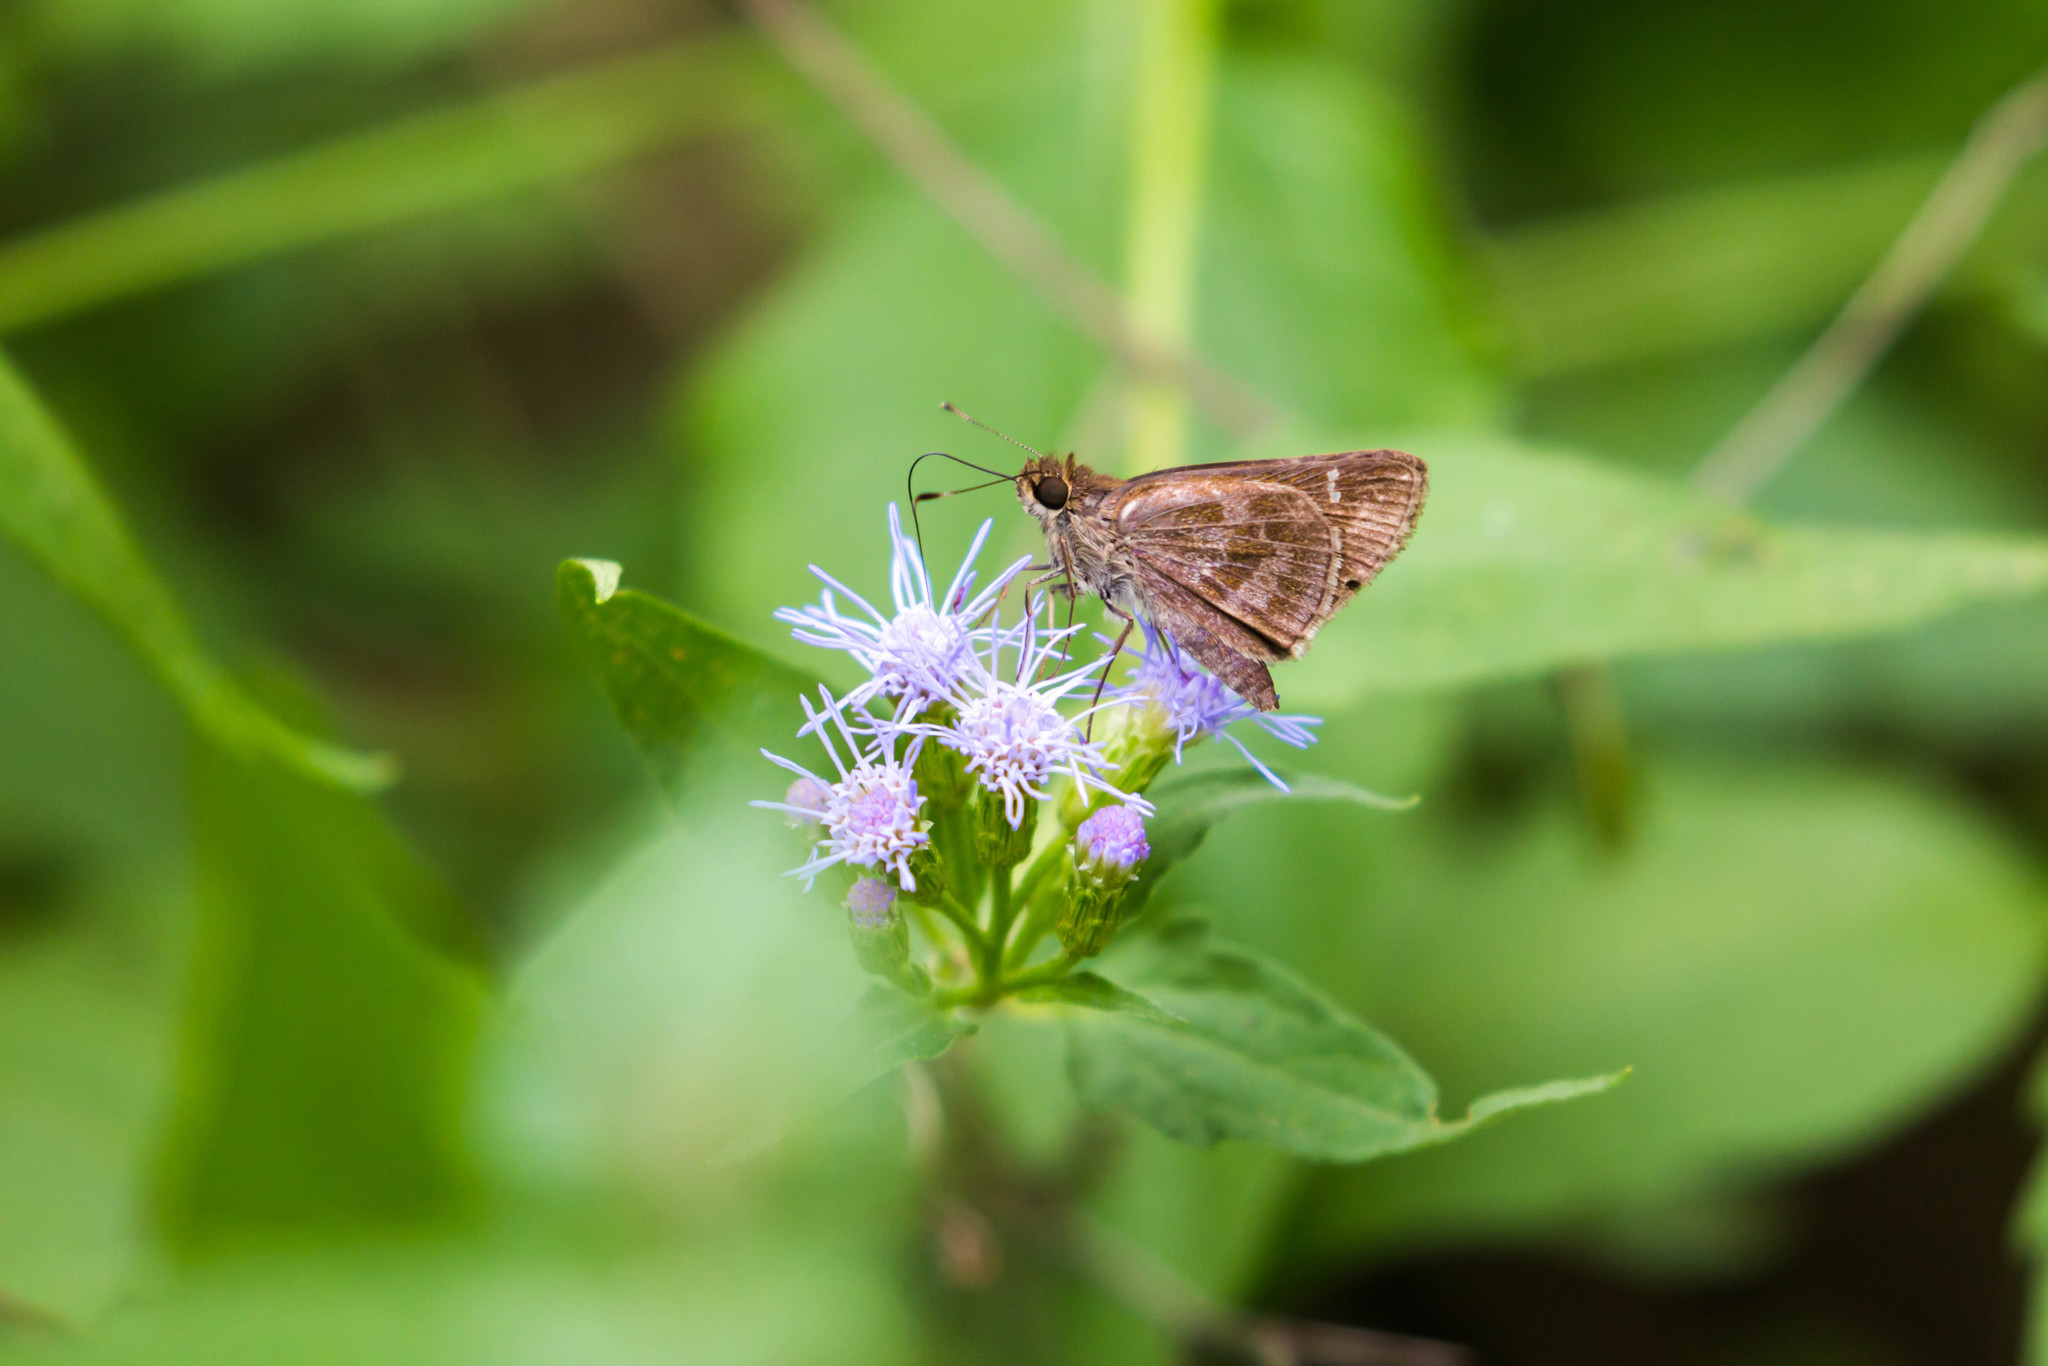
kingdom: Animalia
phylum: Arthropoda
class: Insecta
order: Lepidoptera
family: Hesperiidae
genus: Cymaenes
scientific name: Cymaenes
